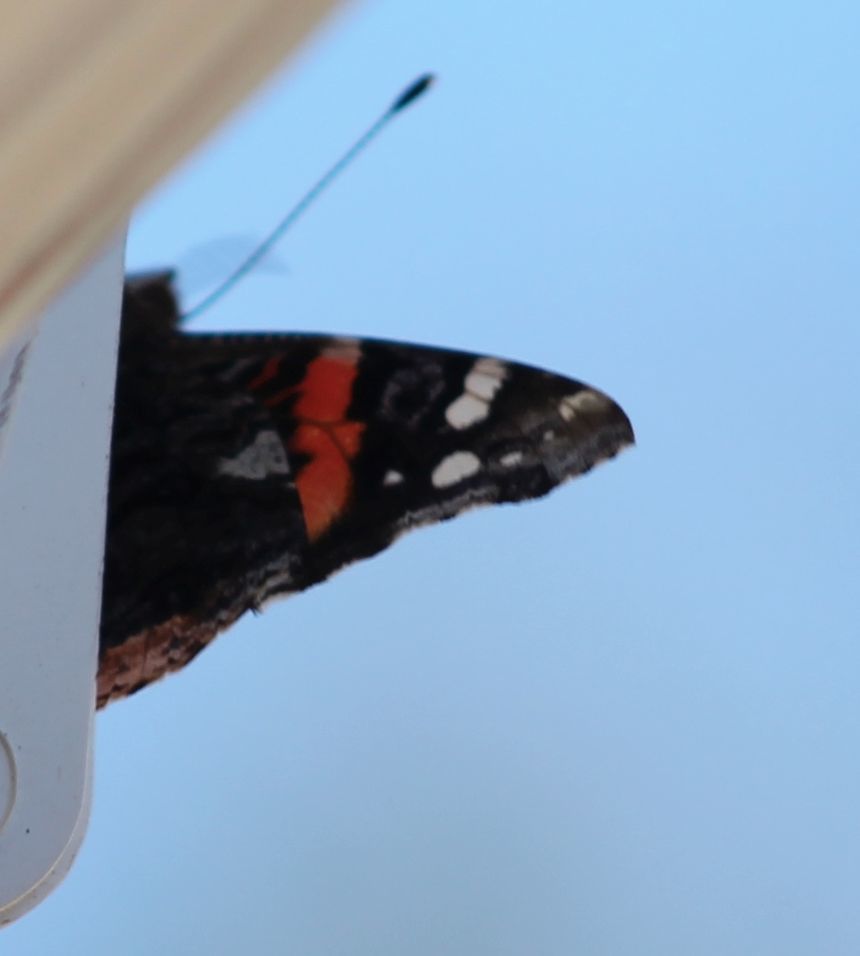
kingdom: Animalia
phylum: Arthropoda
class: Insecta
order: Lepidoptera
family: Nymphalidae
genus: Vanessa
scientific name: Vanessa atalanta
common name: Red admiral
